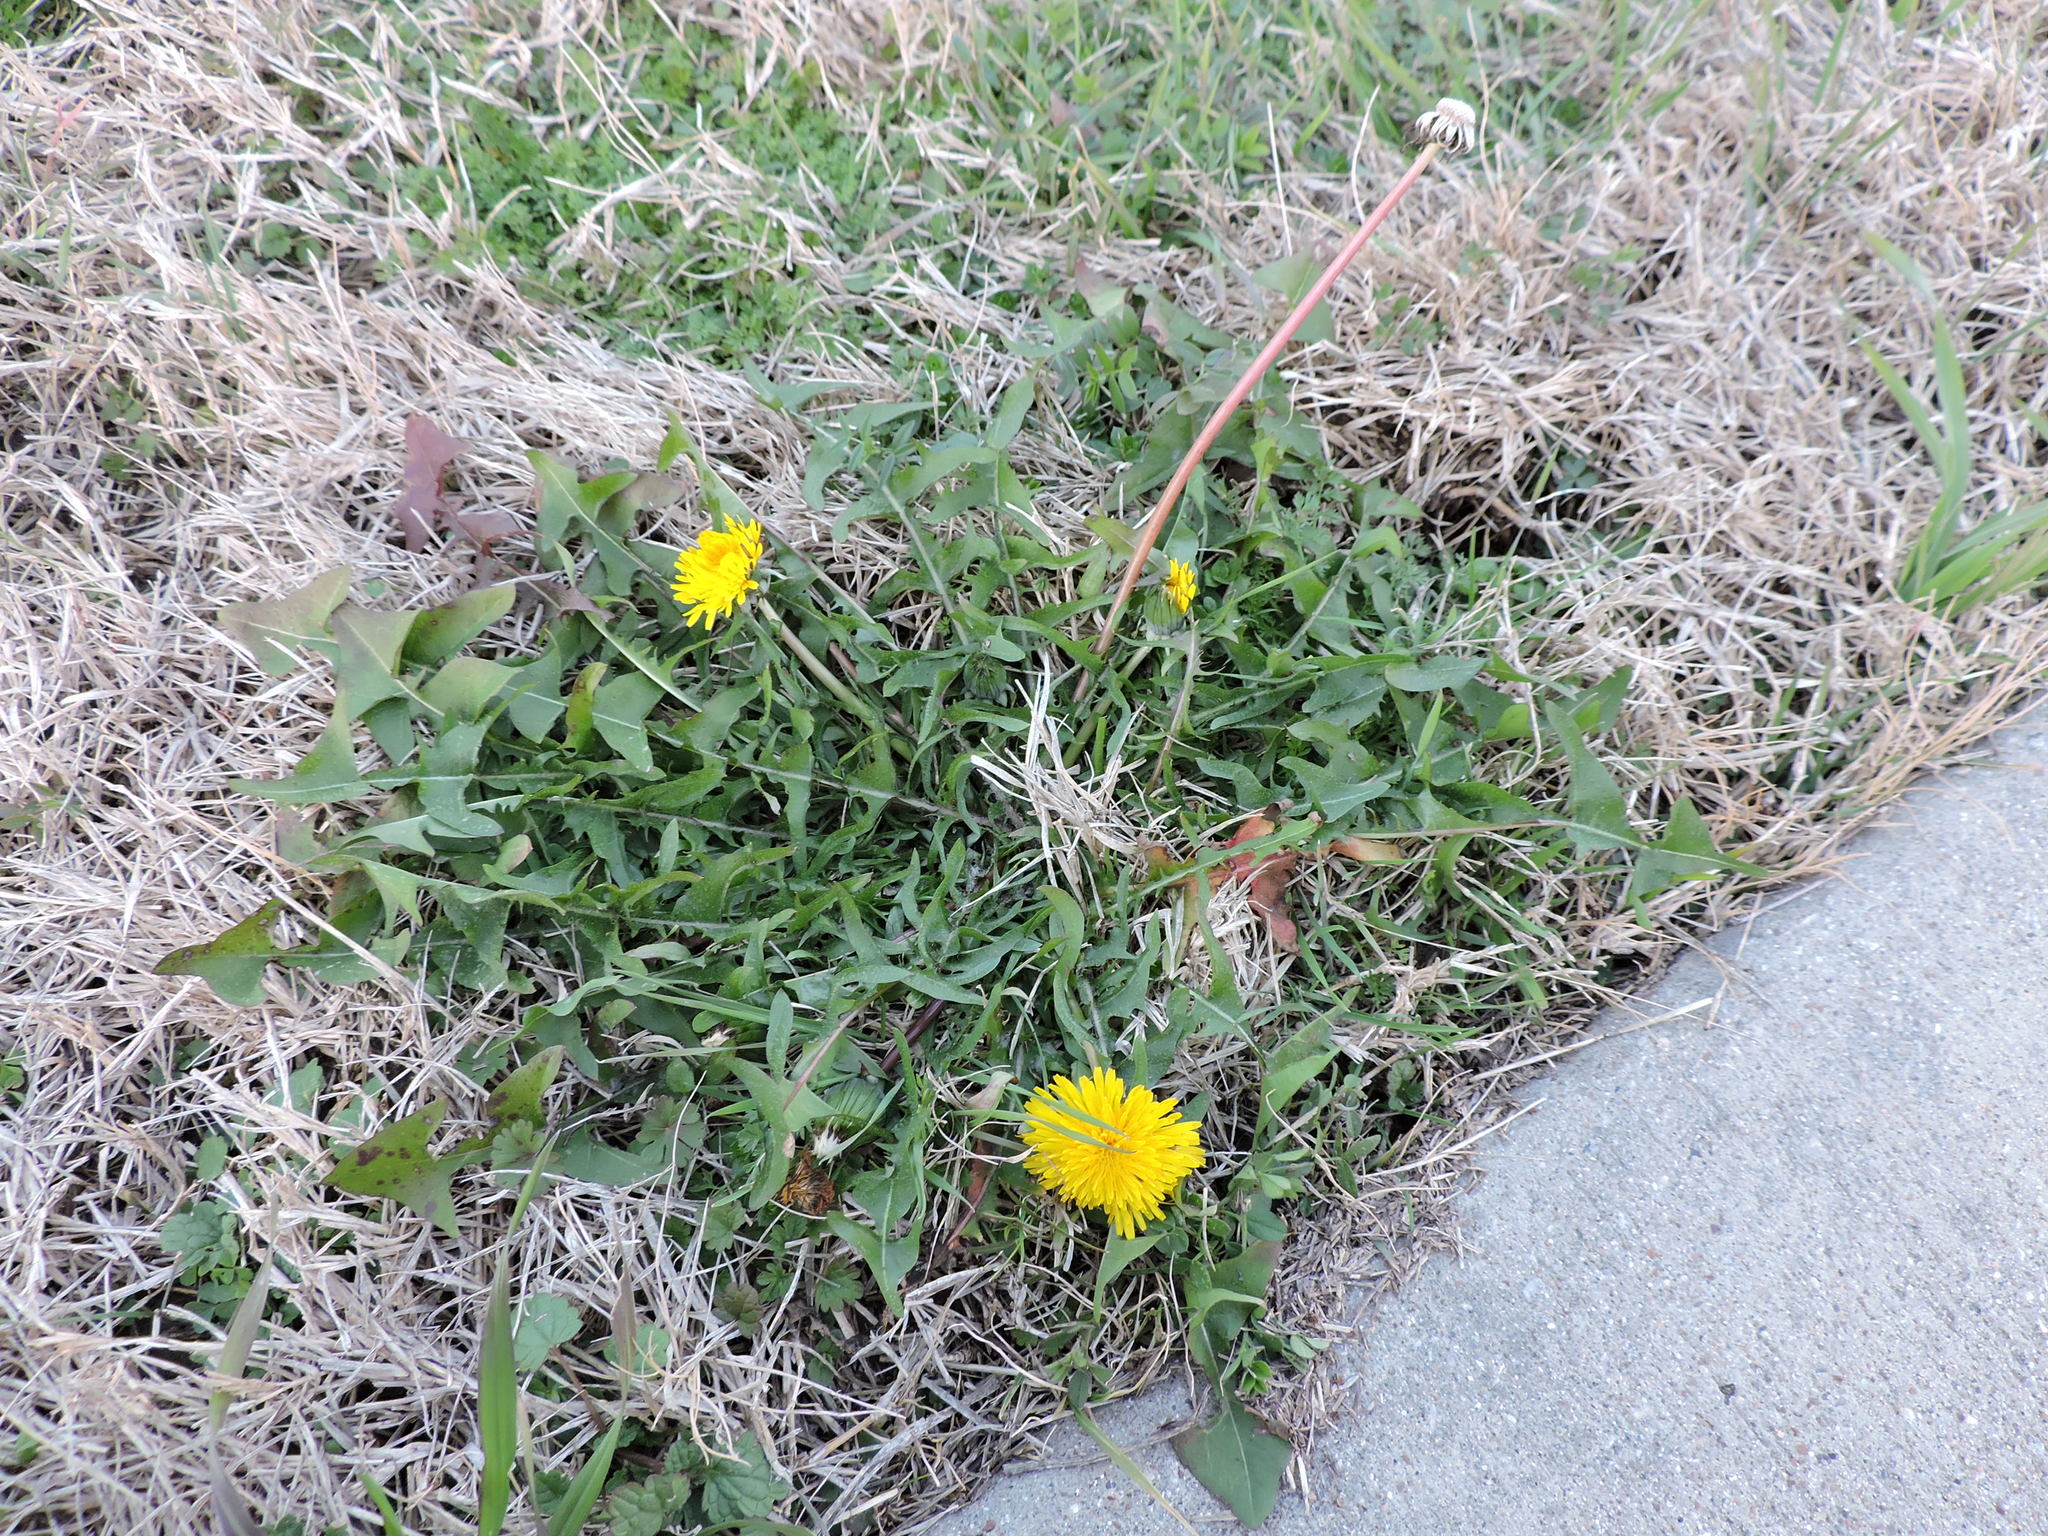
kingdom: Plantae
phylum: Tracheophyta
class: Magnoliopsida
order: Asterales
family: Asteraceae
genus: Taraxacum
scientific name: Taraxacum officinale
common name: Common dandelion
